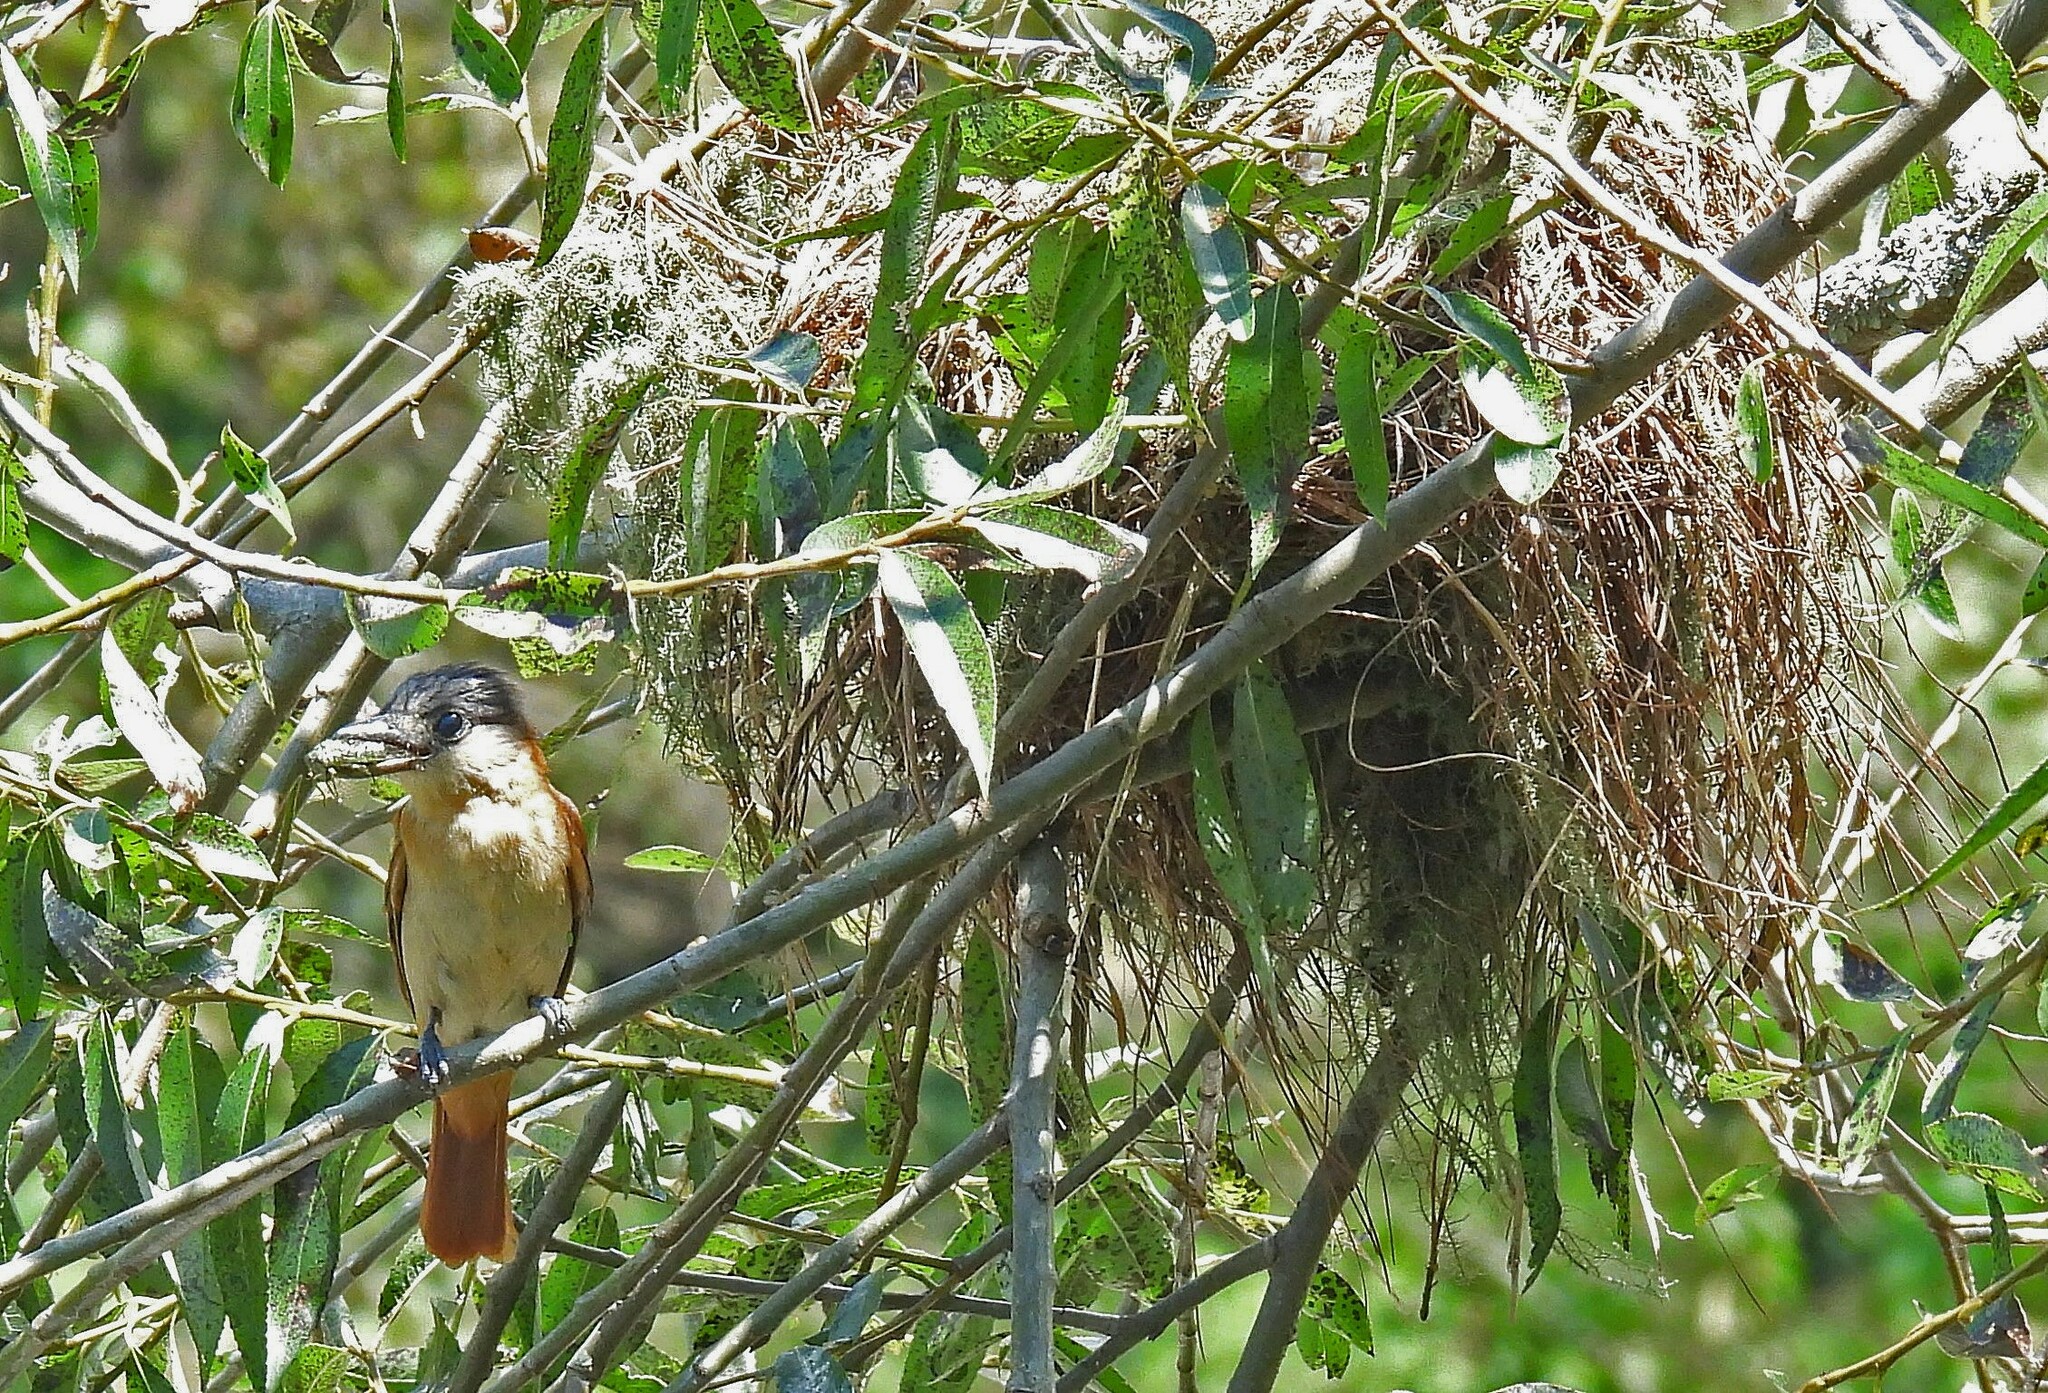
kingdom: Animalia
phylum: Chordata
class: Aves
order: Passeriformes
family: Cotingidae
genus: Pachyramphus
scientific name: Pachyramphus validus
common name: Crested becard
